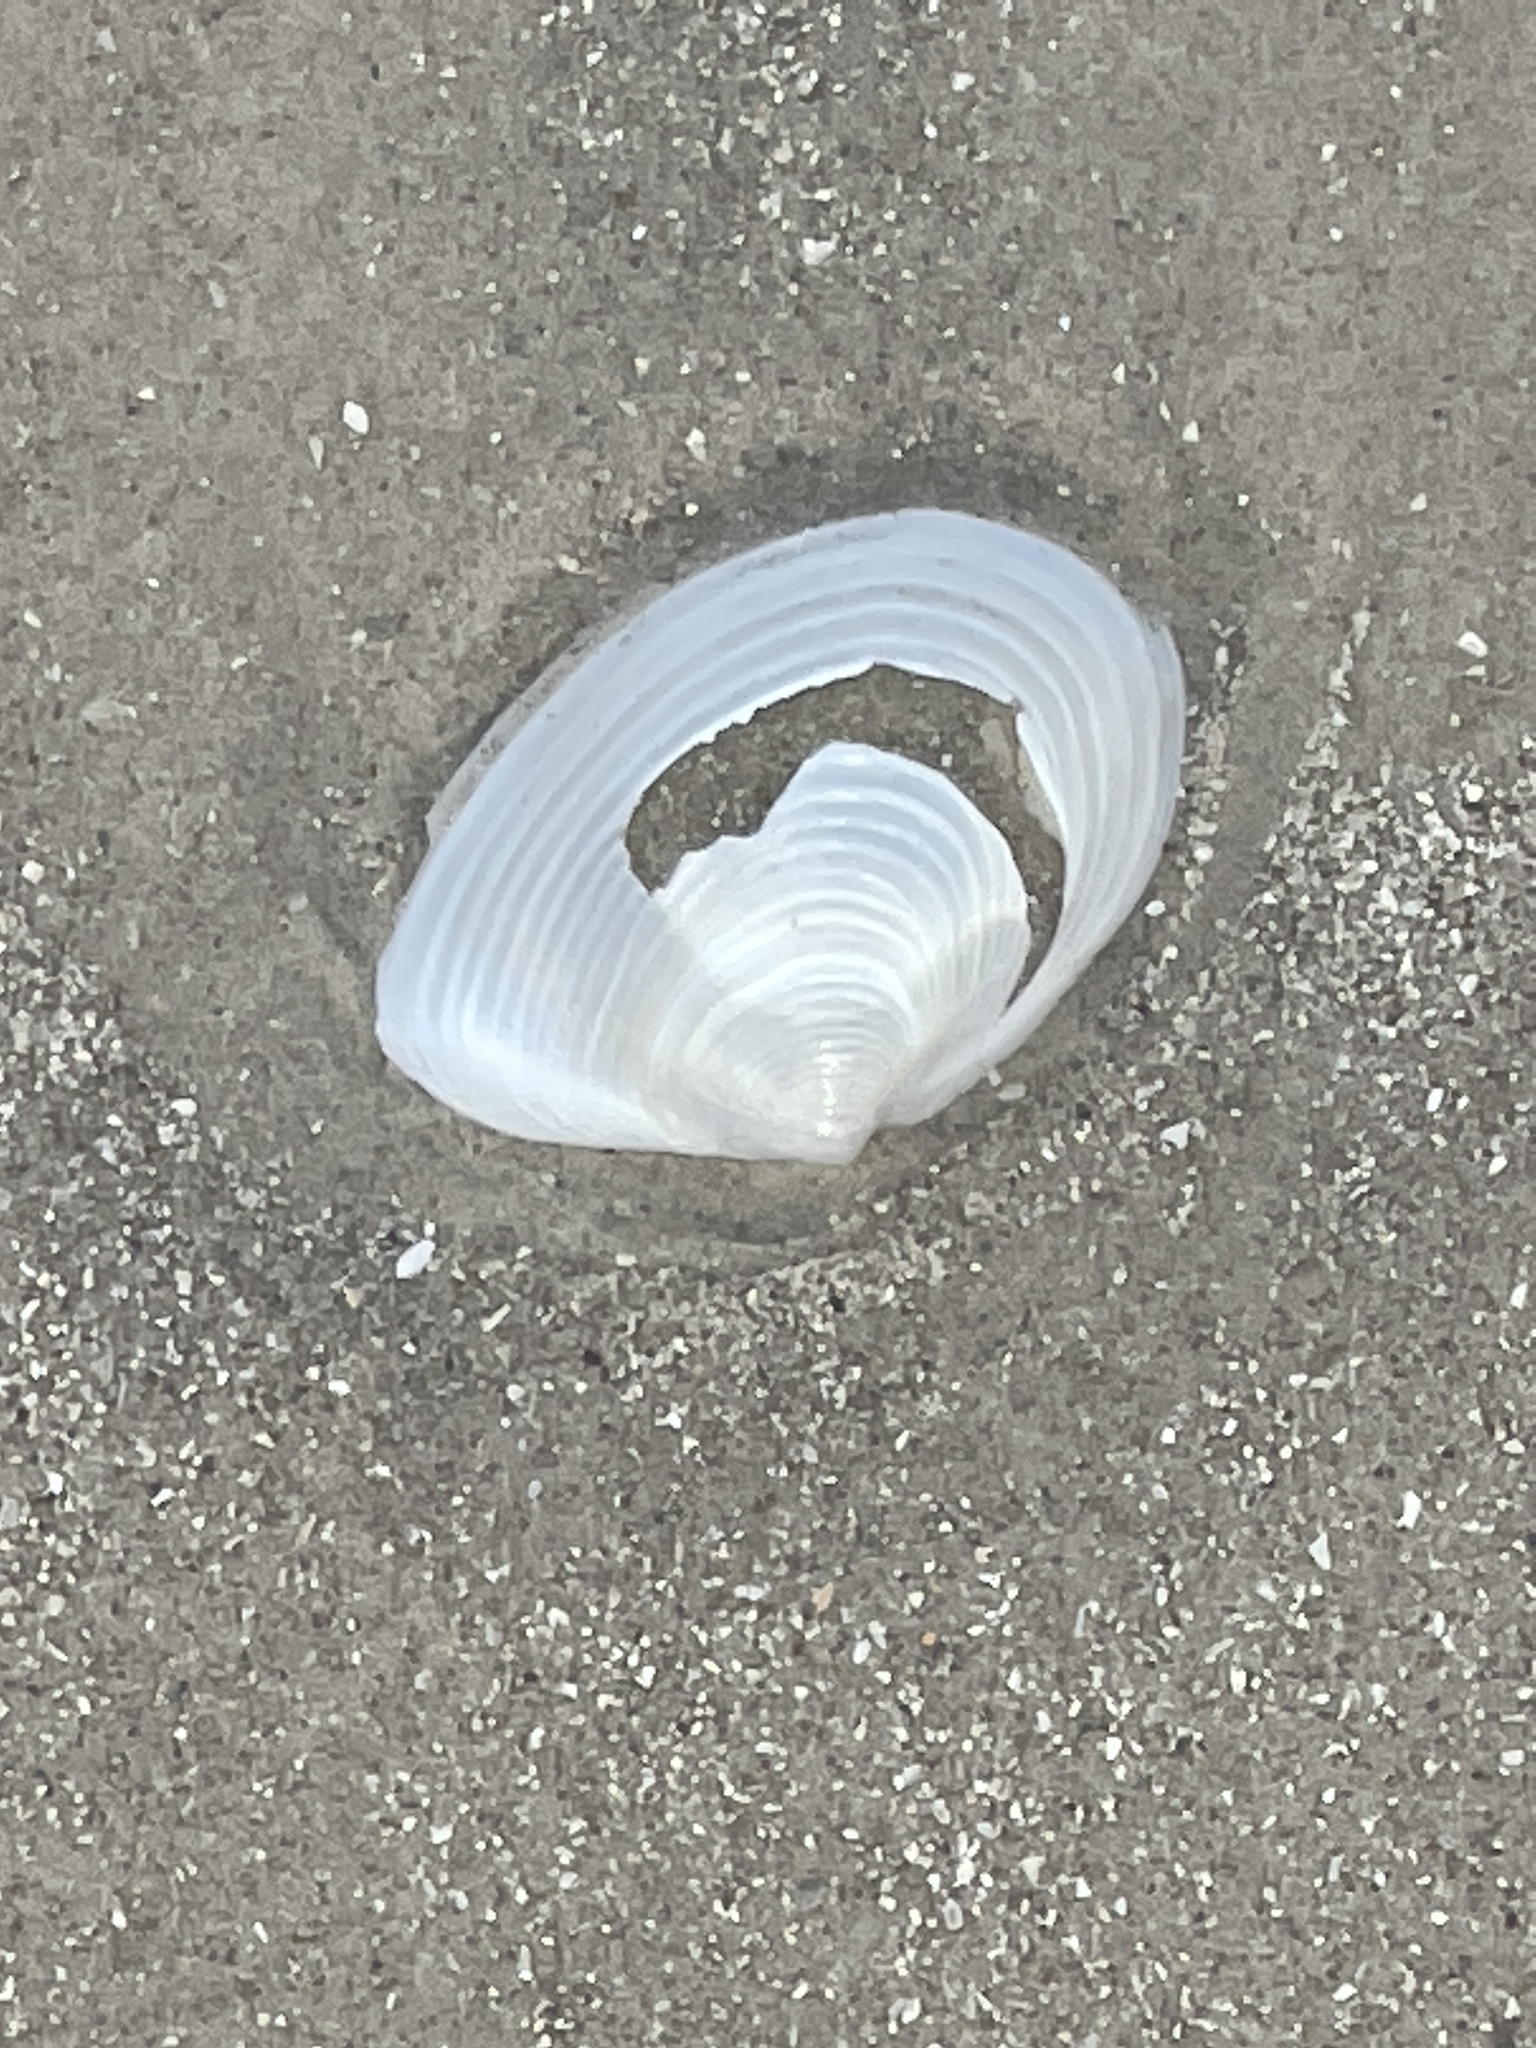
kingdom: Animalia
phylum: Mollusca
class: Bivalvia
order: Venerida
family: Anatinellidae
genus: Raeta
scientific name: Raeta plicatella
